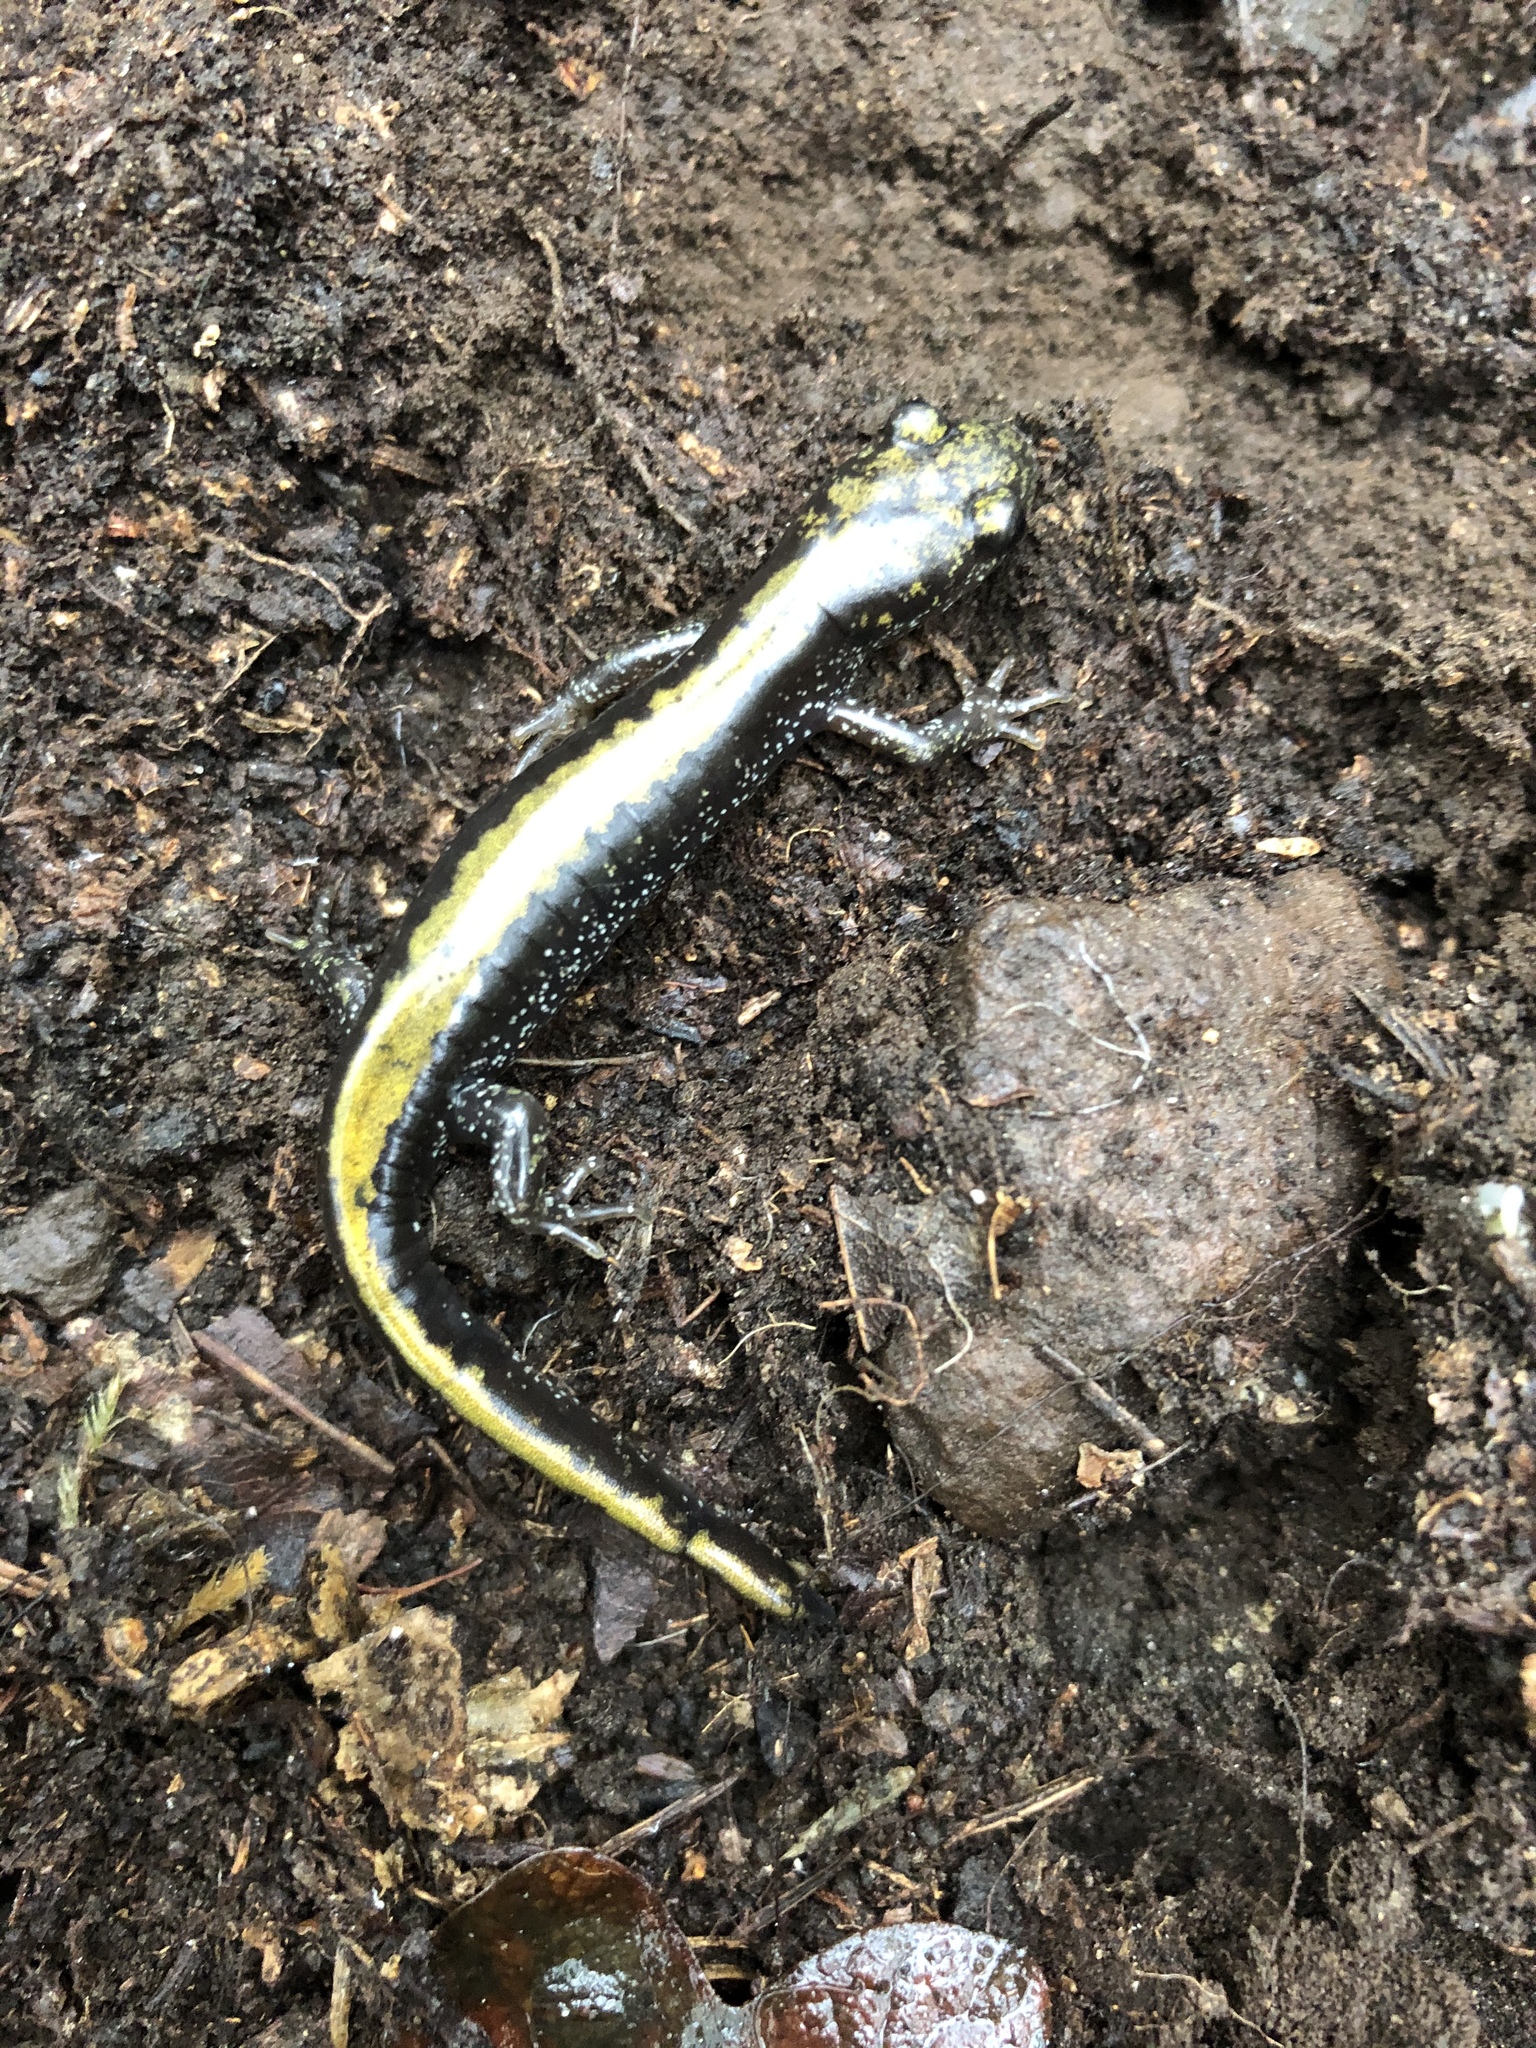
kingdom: Animalia
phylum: Chordata
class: Amphibia
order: Caudata
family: Ambystomatidae
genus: Ambystoma
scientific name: Ambystoma macrodactylum
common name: Long-toed salamander
